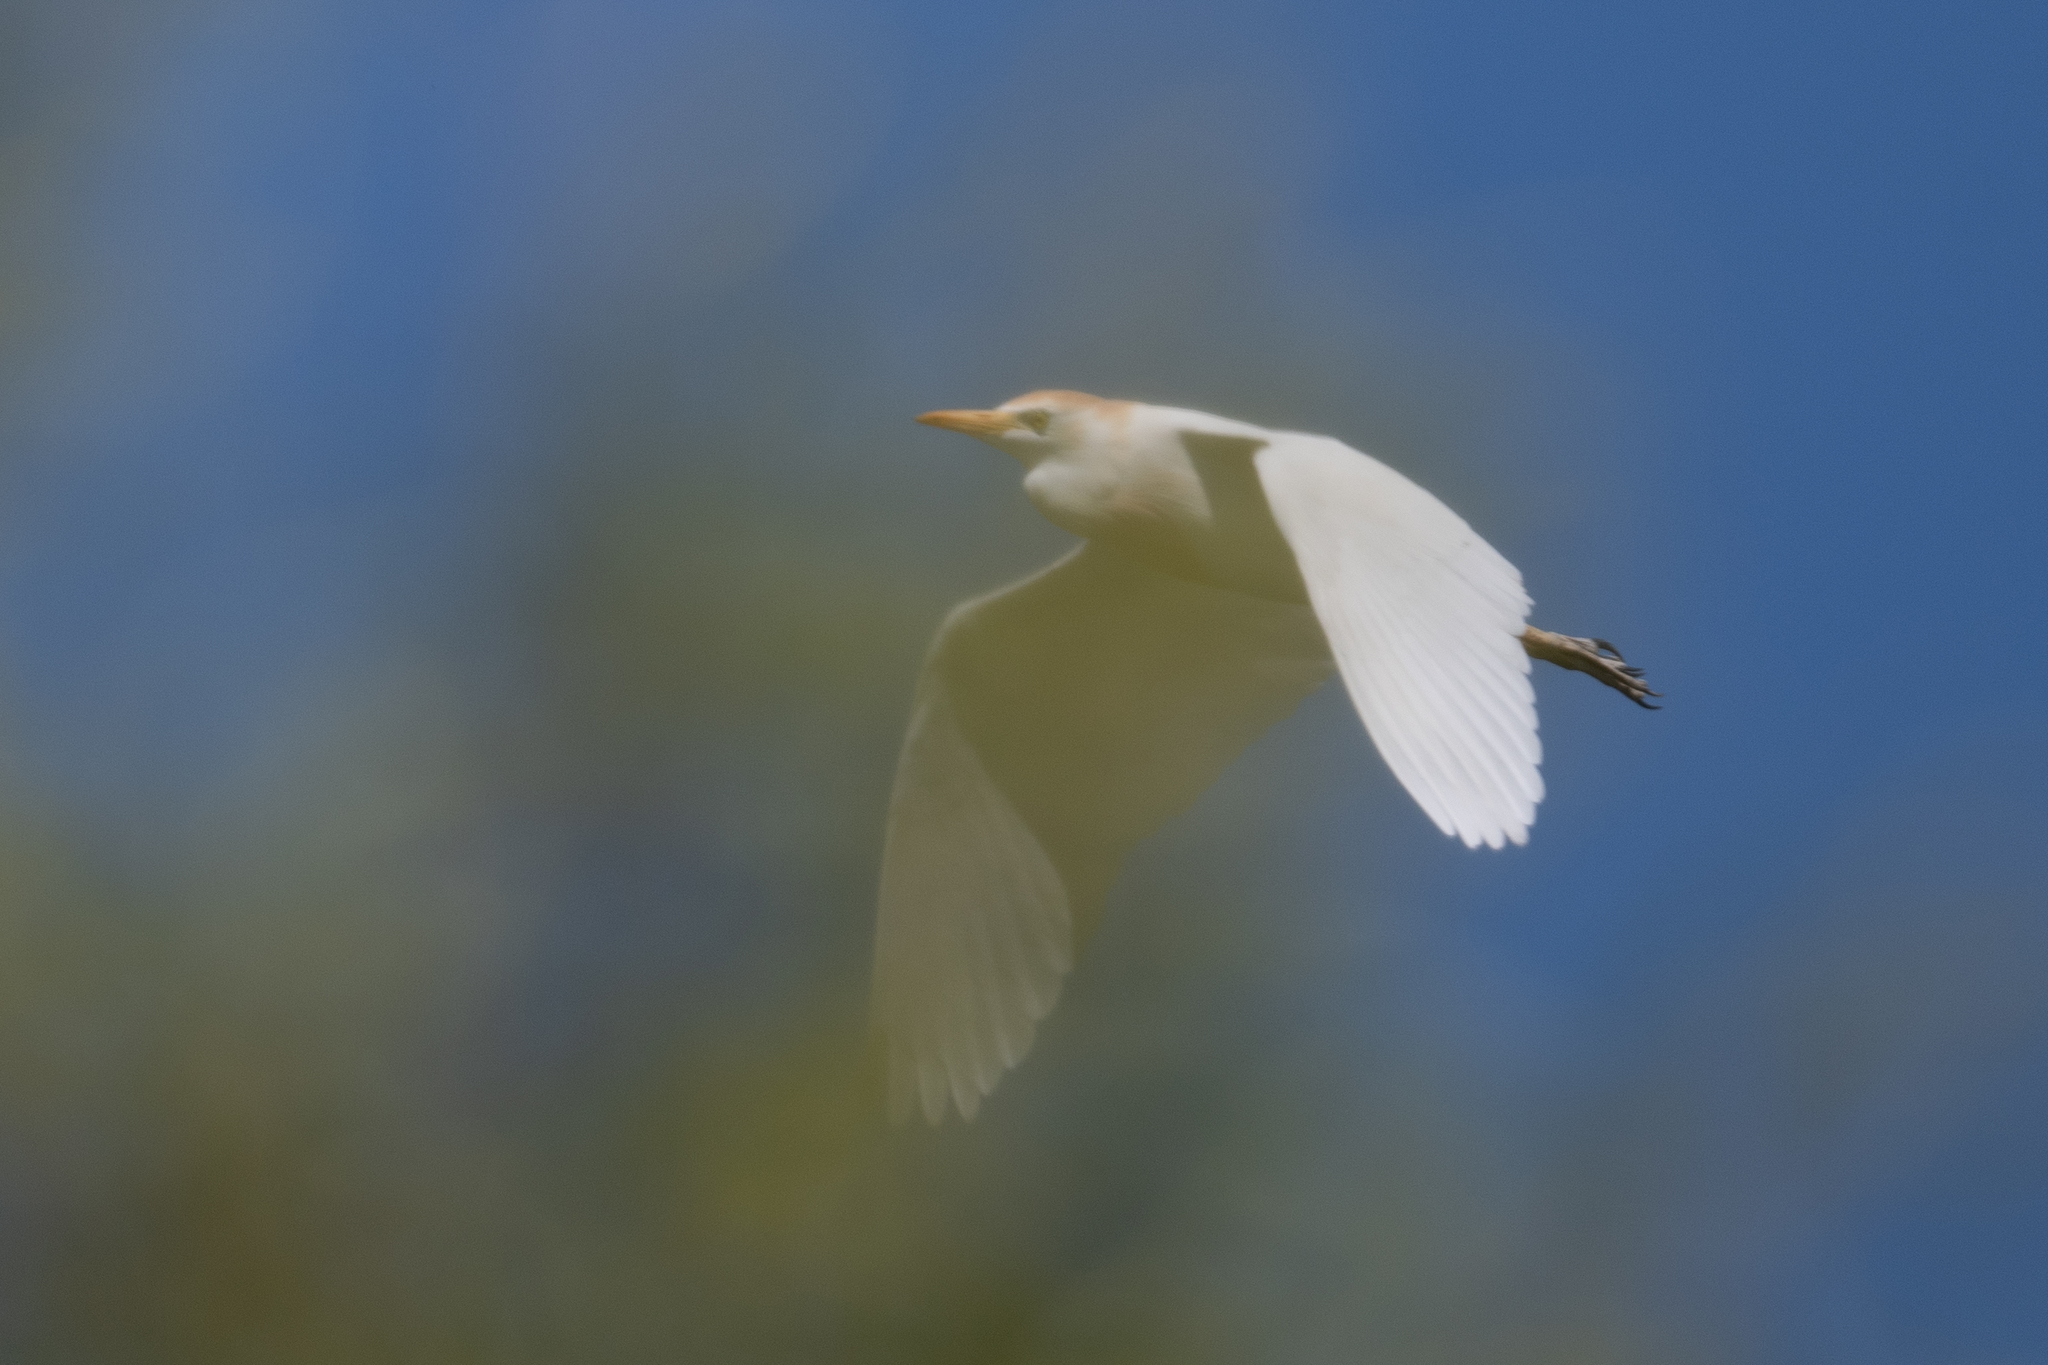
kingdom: Animalia
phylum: Chordata
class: Aves
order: Pelecaniformes
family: Ardeidae
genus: Bubulcus
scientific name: Bubulcus ibis
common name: Cattle egret
